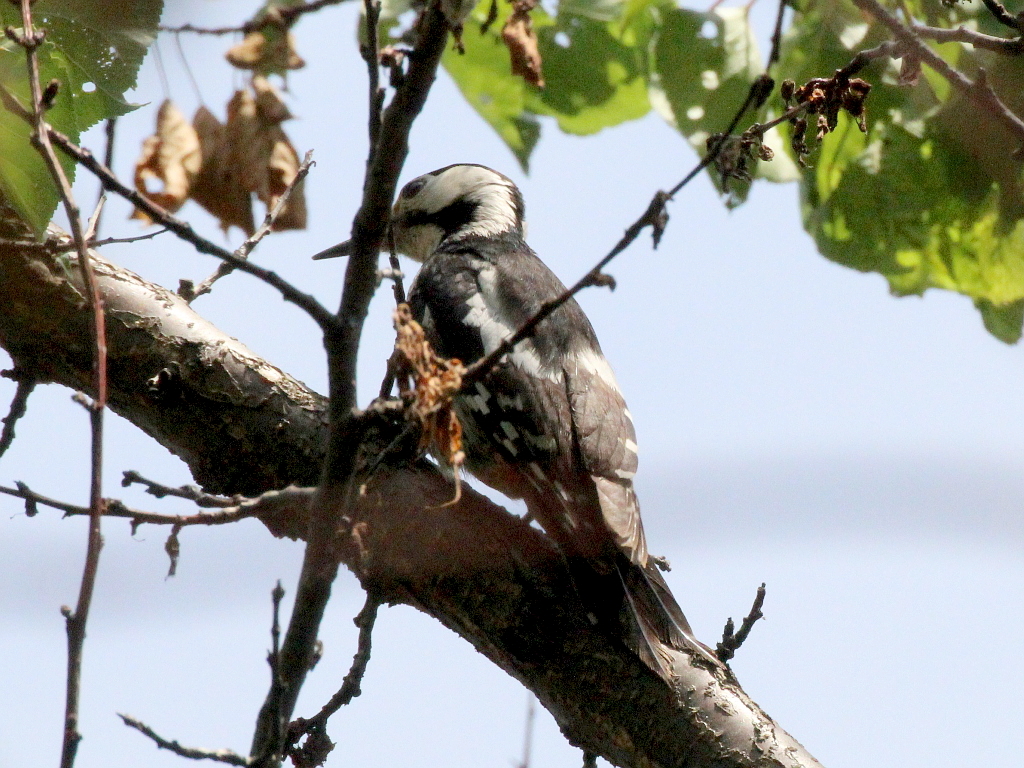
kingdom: Animalia
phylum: Chordata
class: Aves
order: Piciformes
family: Picidae
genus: Dendrocopos
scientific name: Dendrocopos syriacus
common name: Syrian woodpecker
